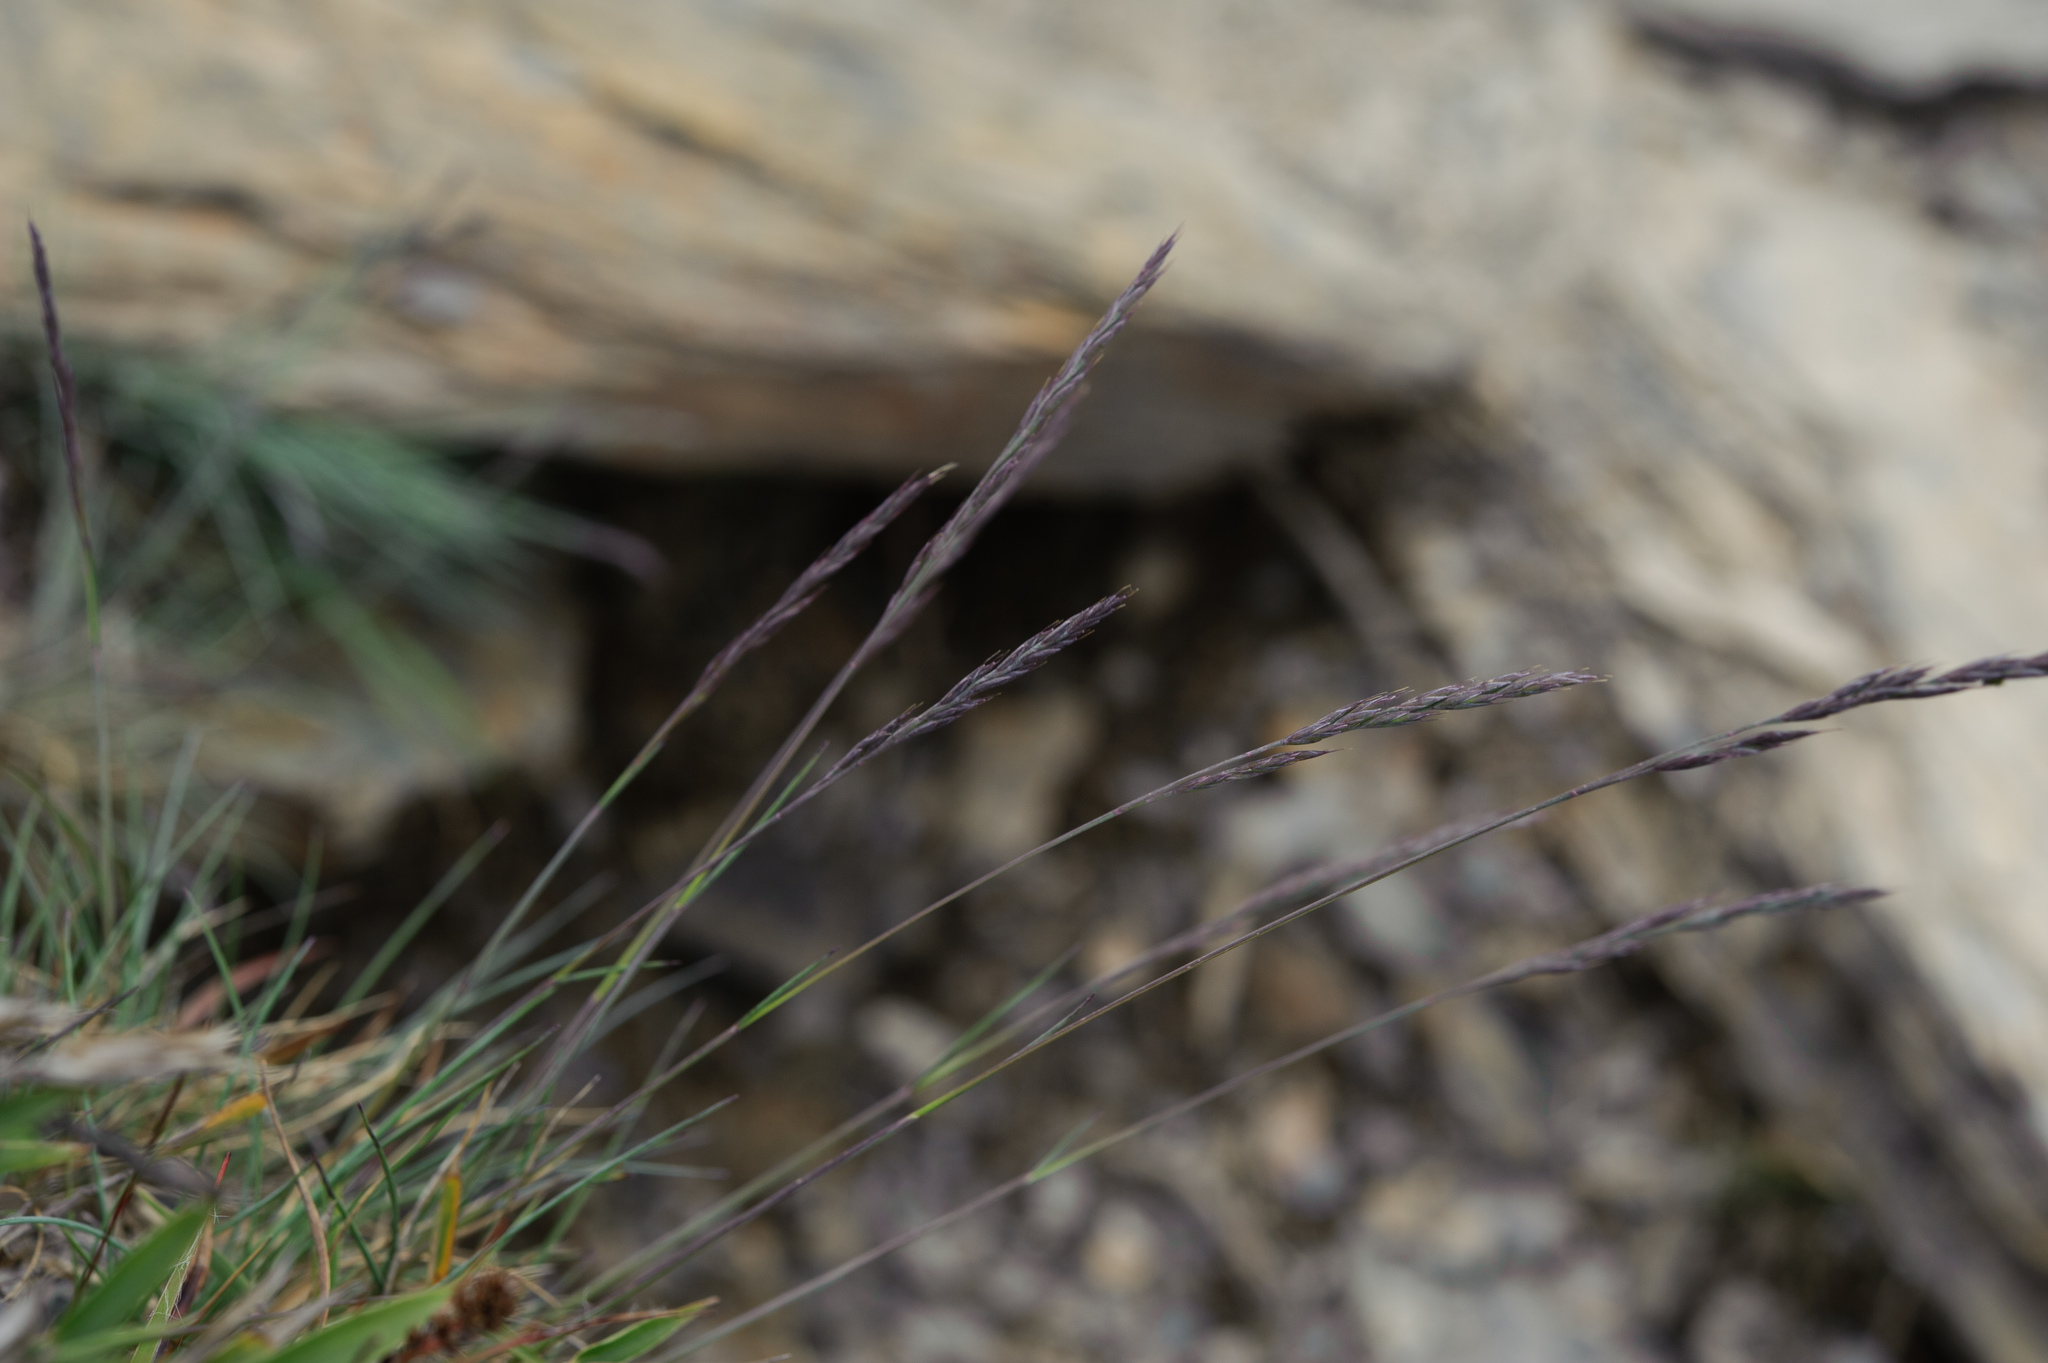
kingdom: Plantae
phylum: Tracheophyta
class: Liliopsida
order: Poales
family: Poaceae
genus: Festuca
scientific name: Festuca ovina
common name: Sheep fescue
